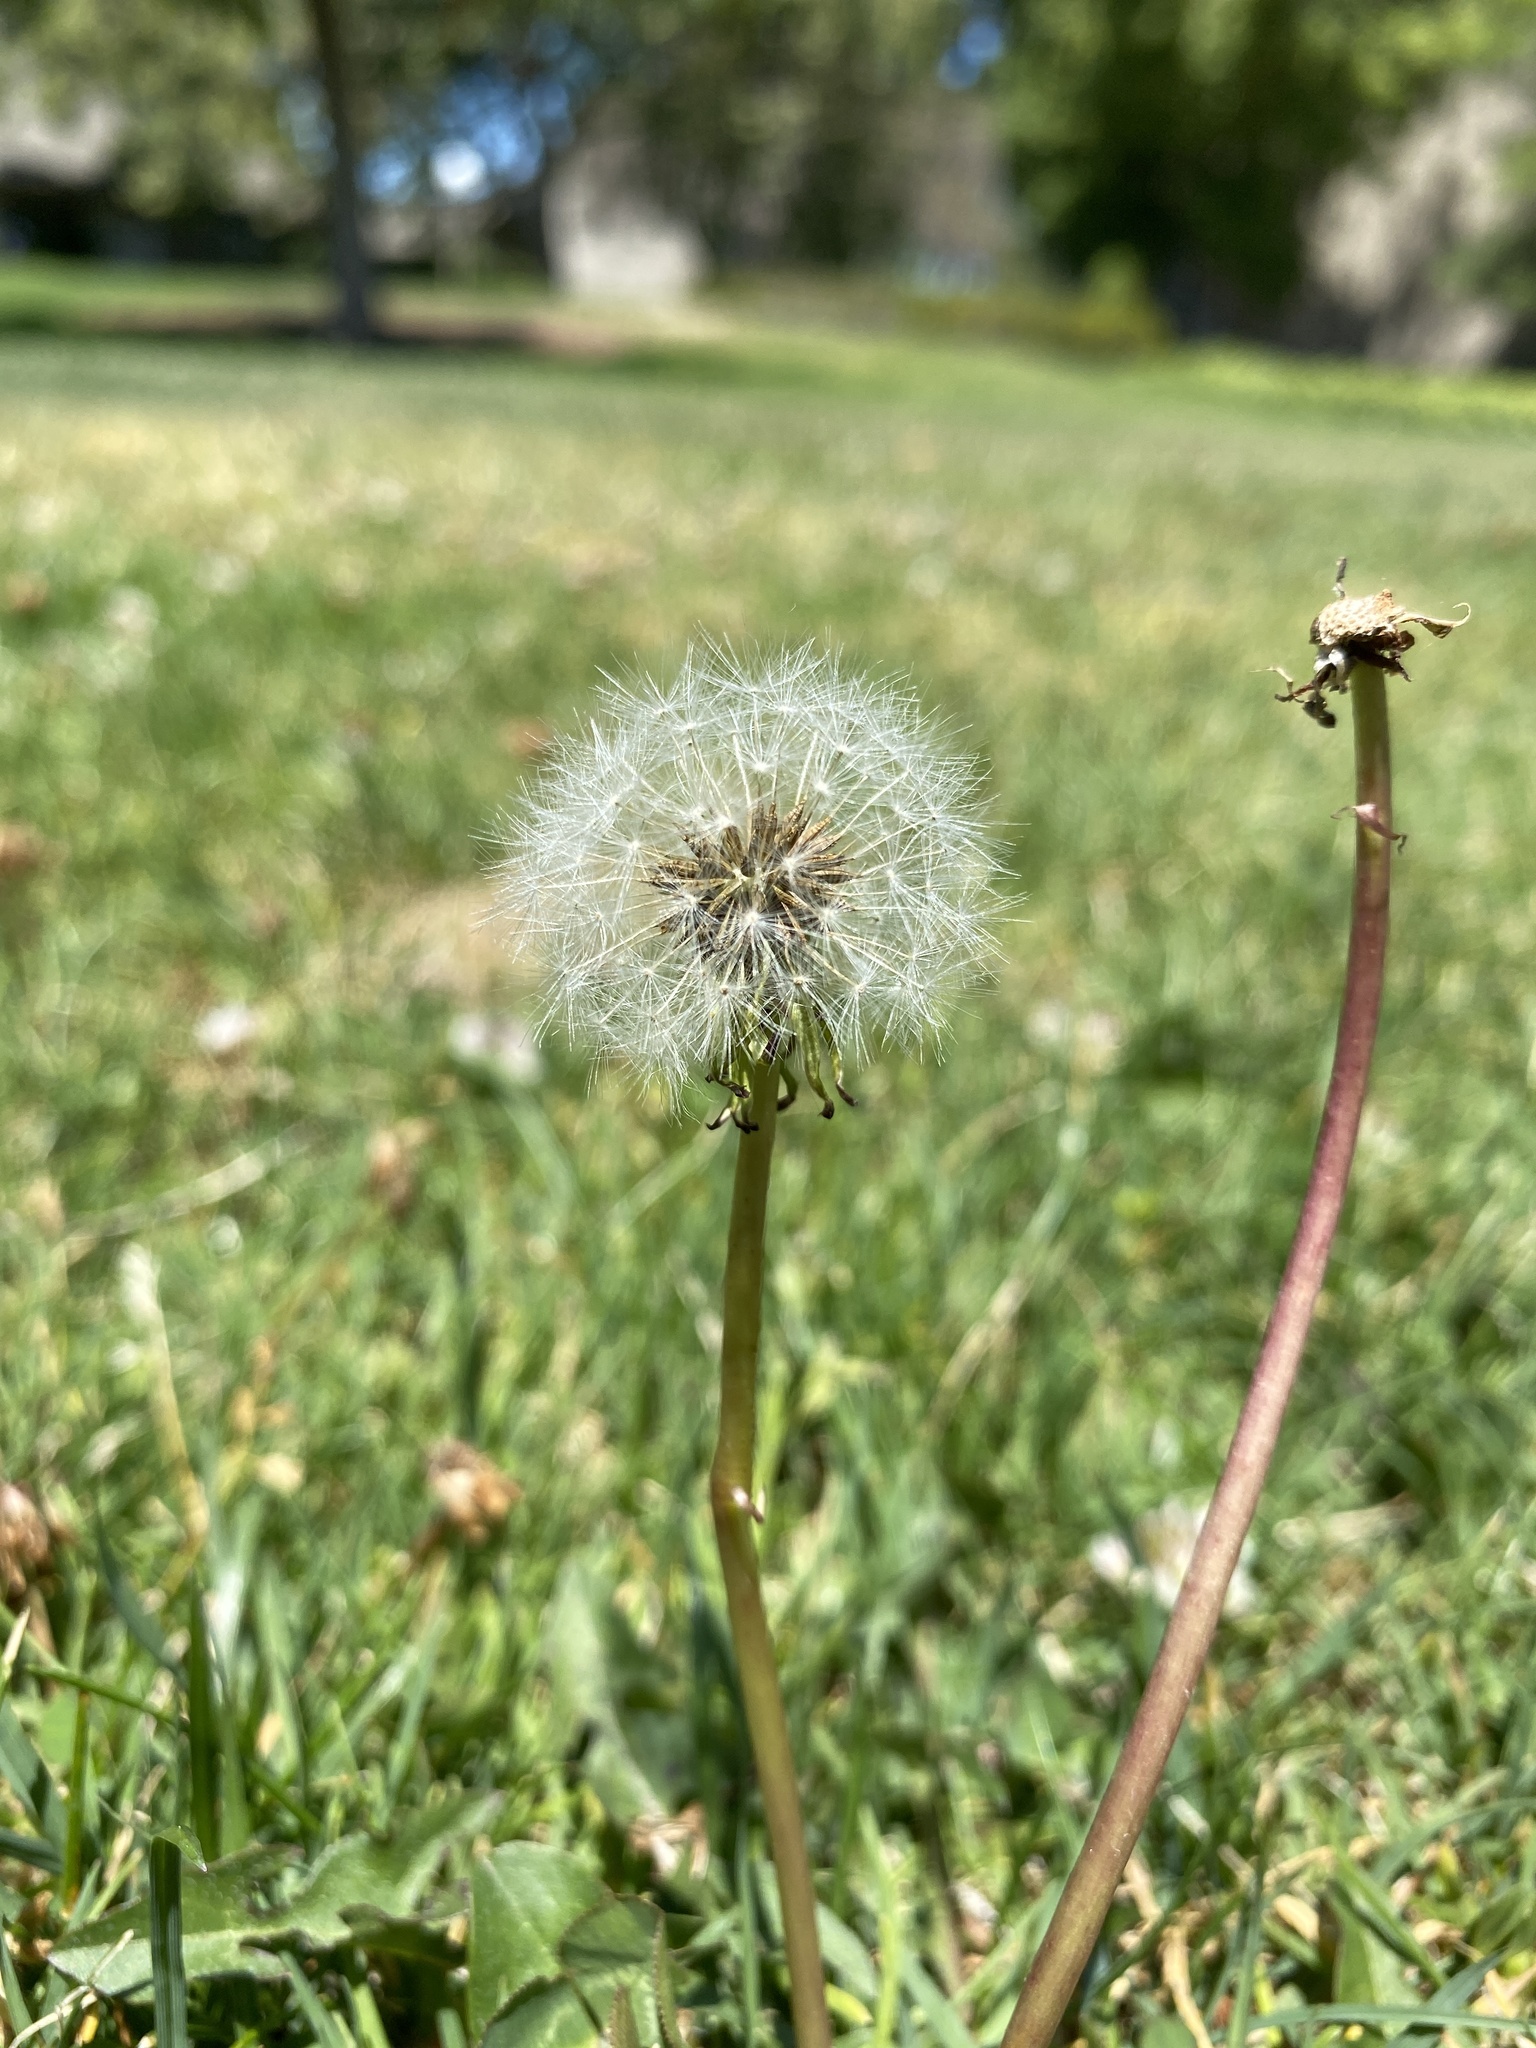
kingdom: Plantae
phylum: Tracheophyta
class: Magnoliopsida
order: Asterales
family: Asteraceae
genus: Taraxacum
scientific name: Taraxacum officinale
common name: Common dandelion
